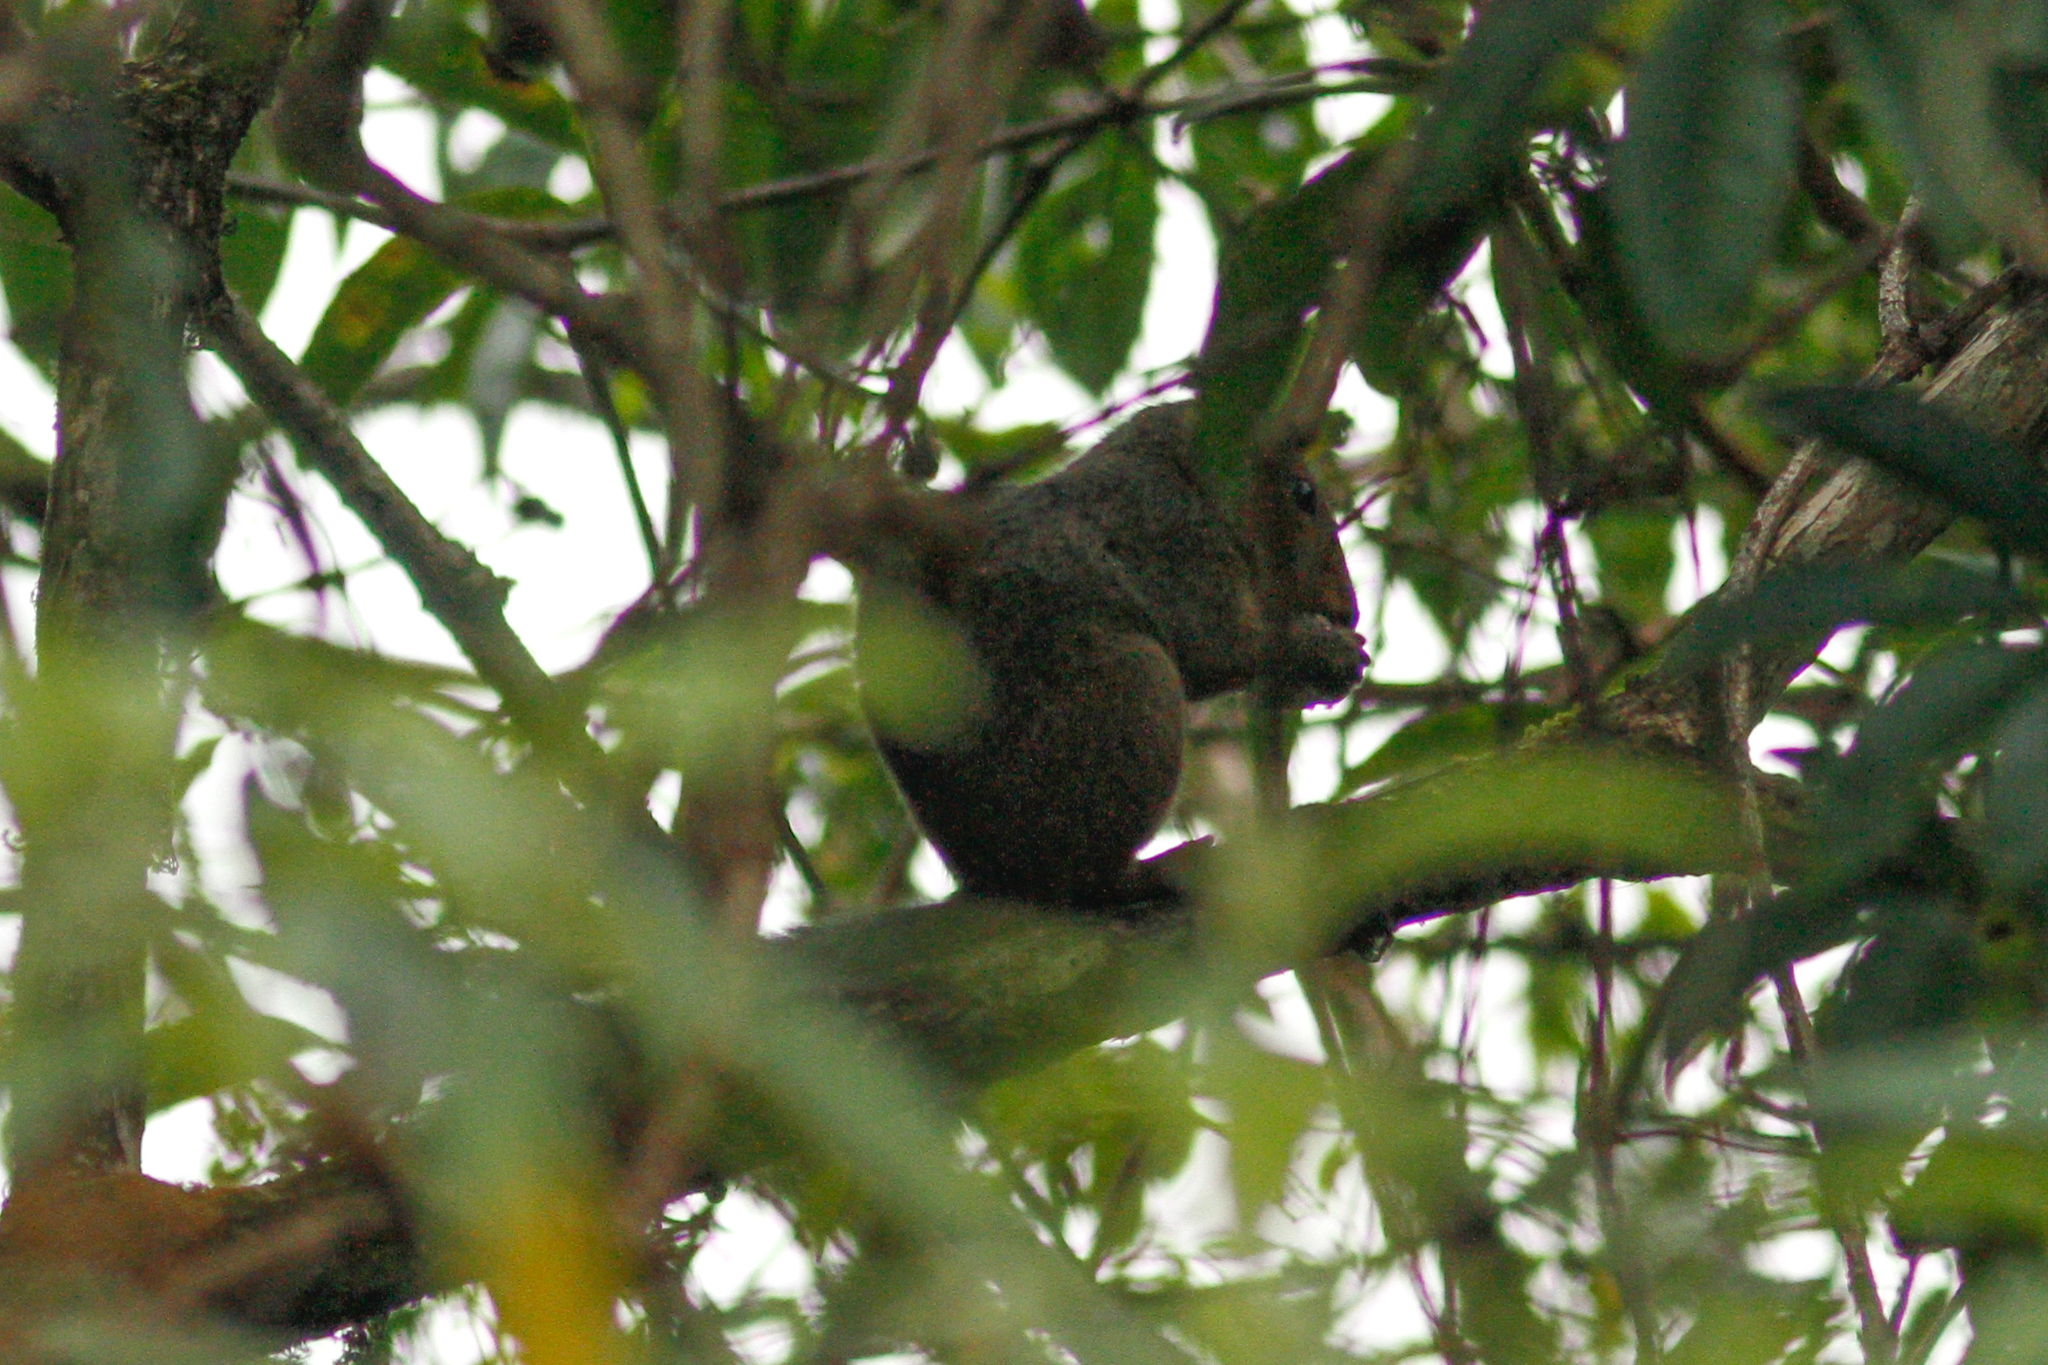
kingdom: Animalia
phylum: Chordata
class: Mammalia
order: Rodentia
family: Sciuridae
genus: Dremomys
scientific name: Dremomys rufigenis
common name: Asian red-cheeked squirrel
